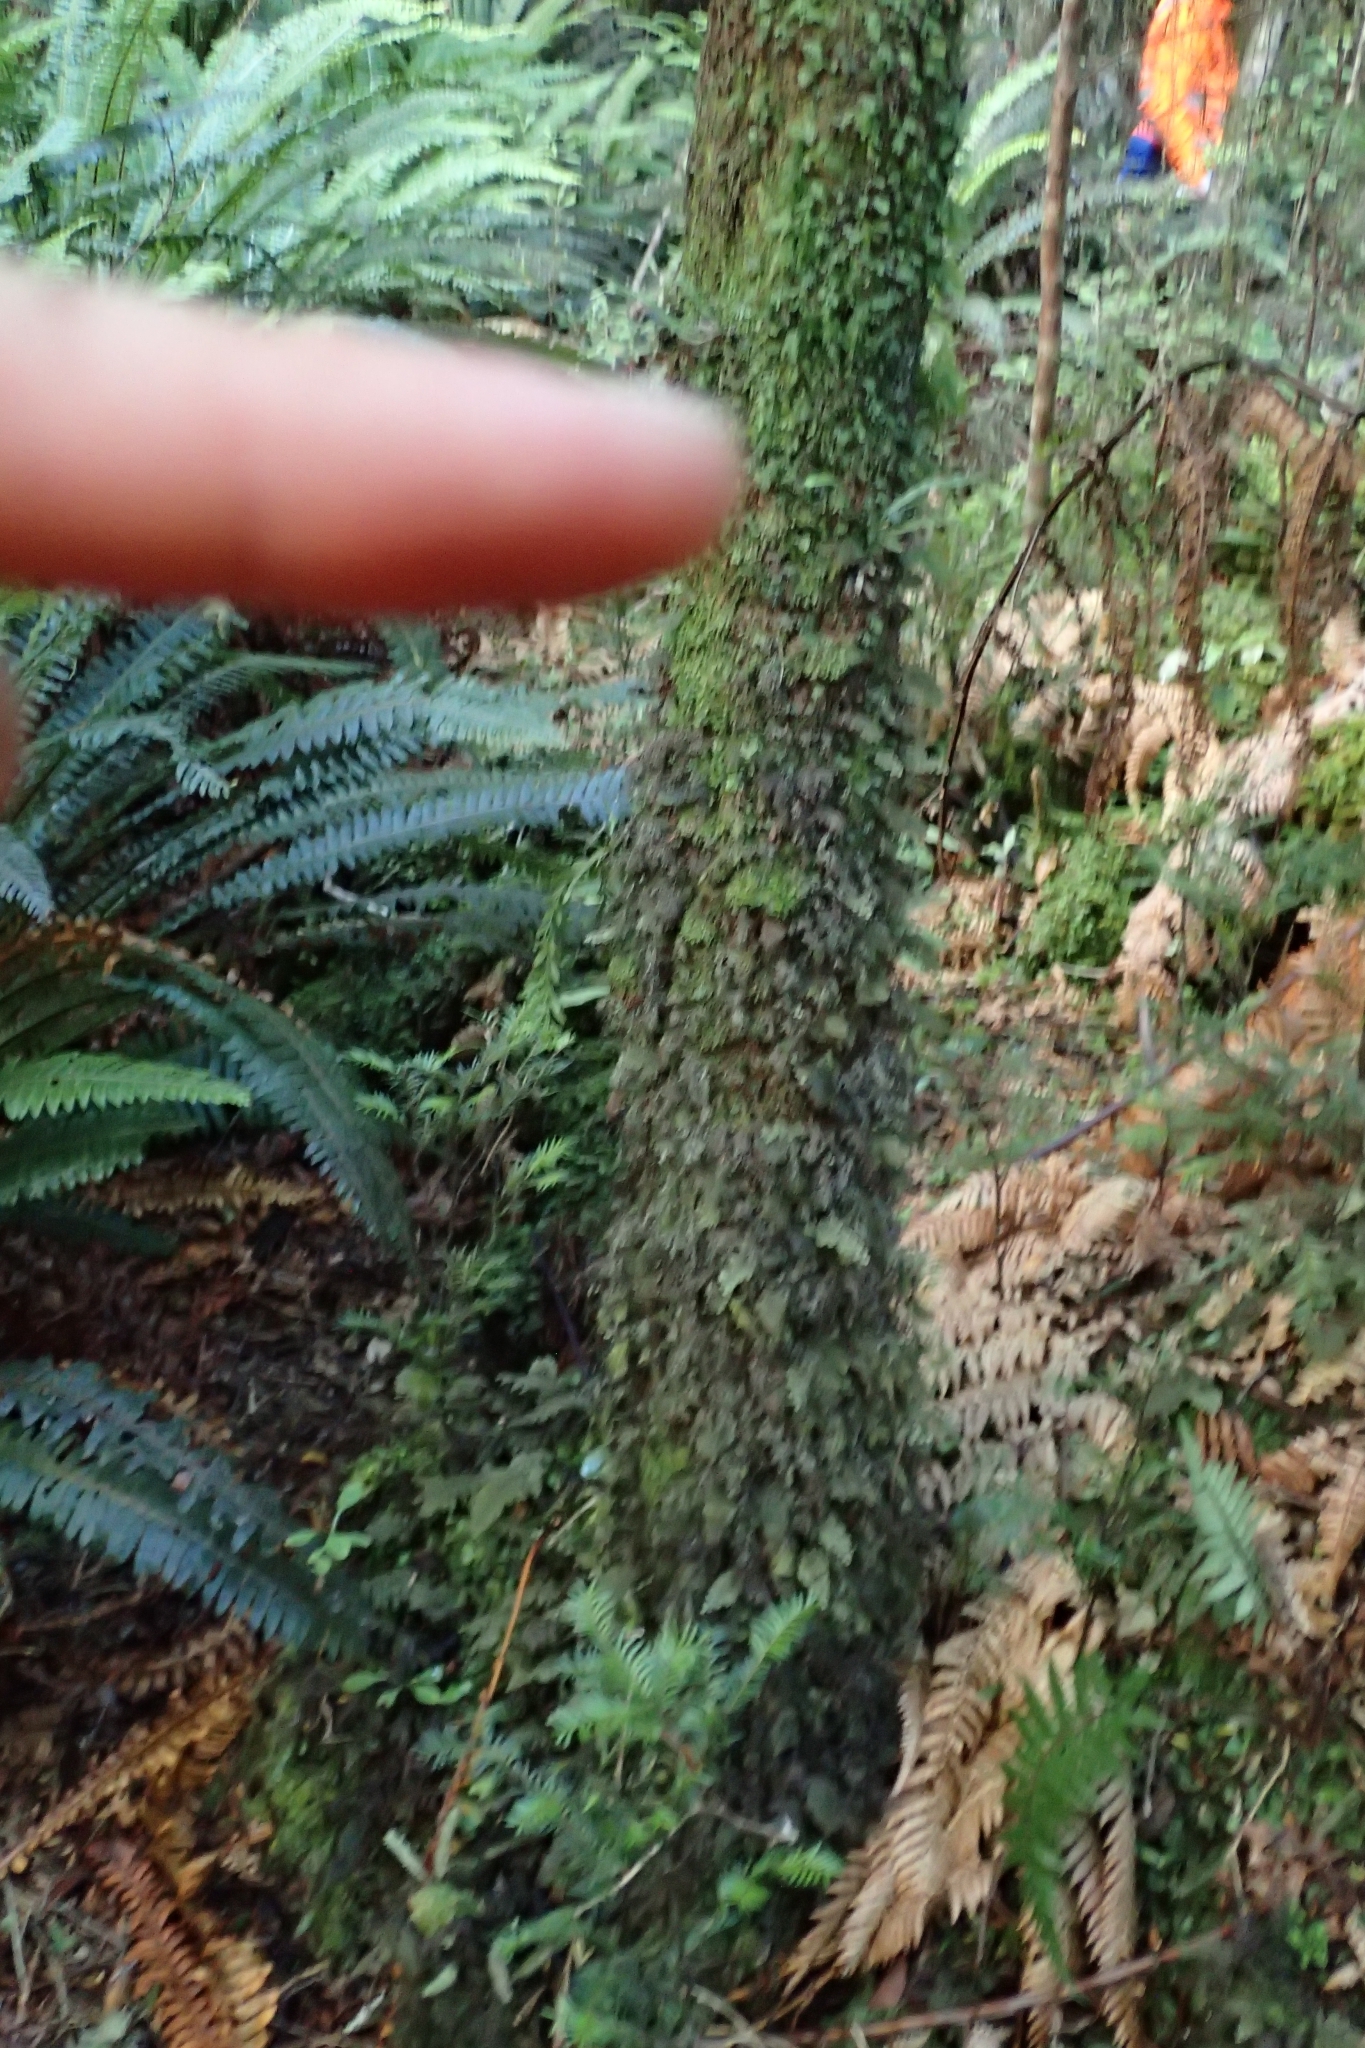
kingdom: Plantae
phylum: Tracheophyta
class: Polypodiopsida
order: Polypodiales
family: Polypodiaceae
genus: Notogrammitis
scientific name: Notogrammitis billardierei
